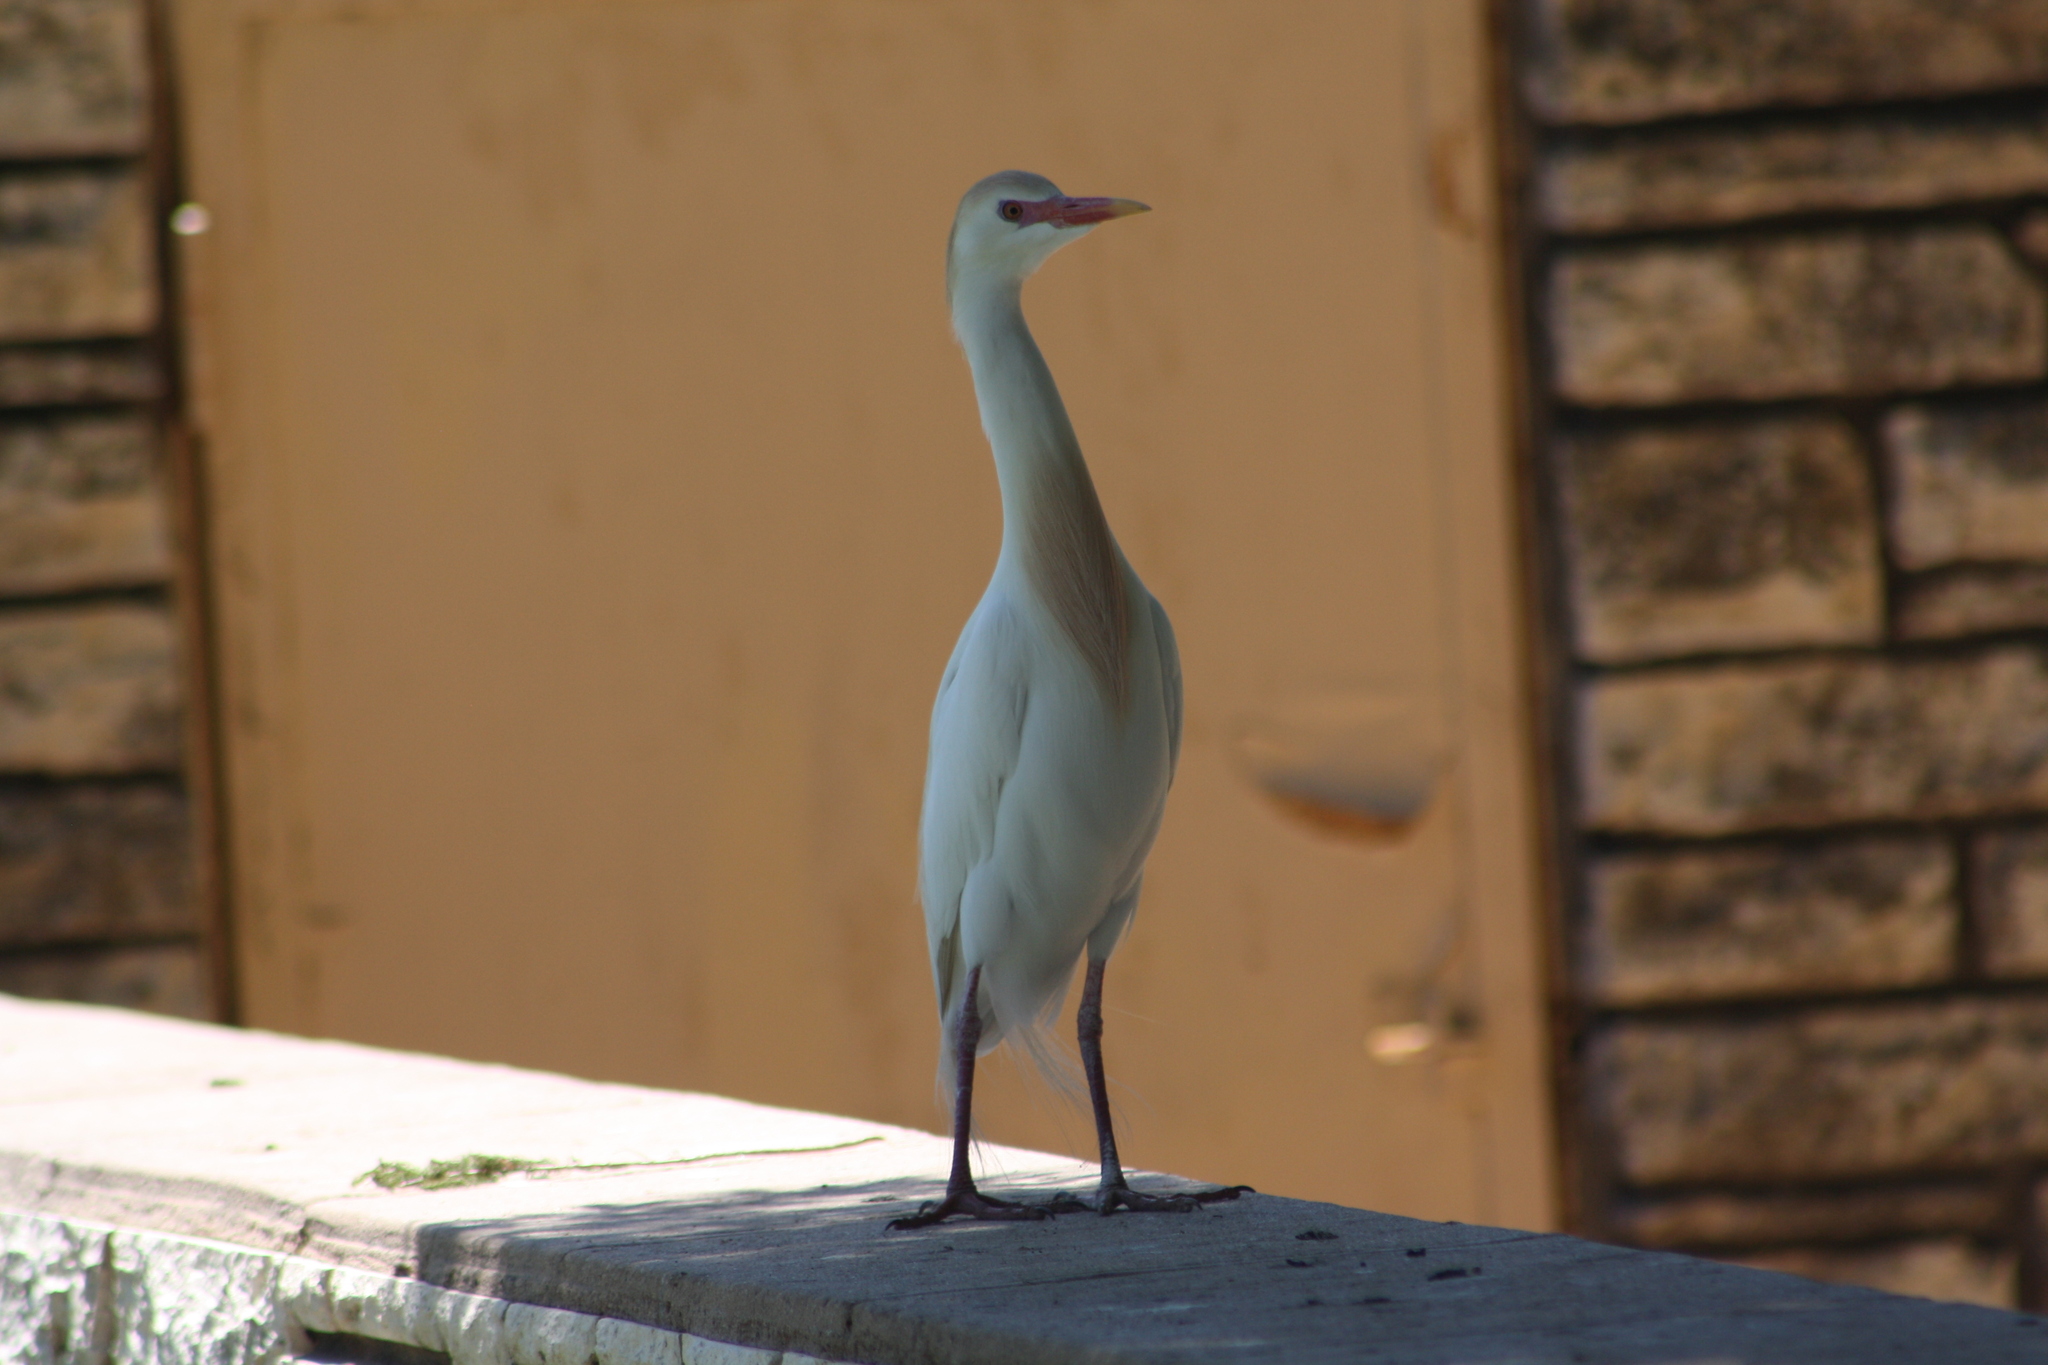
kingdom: Animalia
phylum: Chordata
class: Aves
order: Pelecaniformes
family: Ardeidae
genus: Bubulcus
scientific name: Bubulcus ibis
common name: Cattle egret
